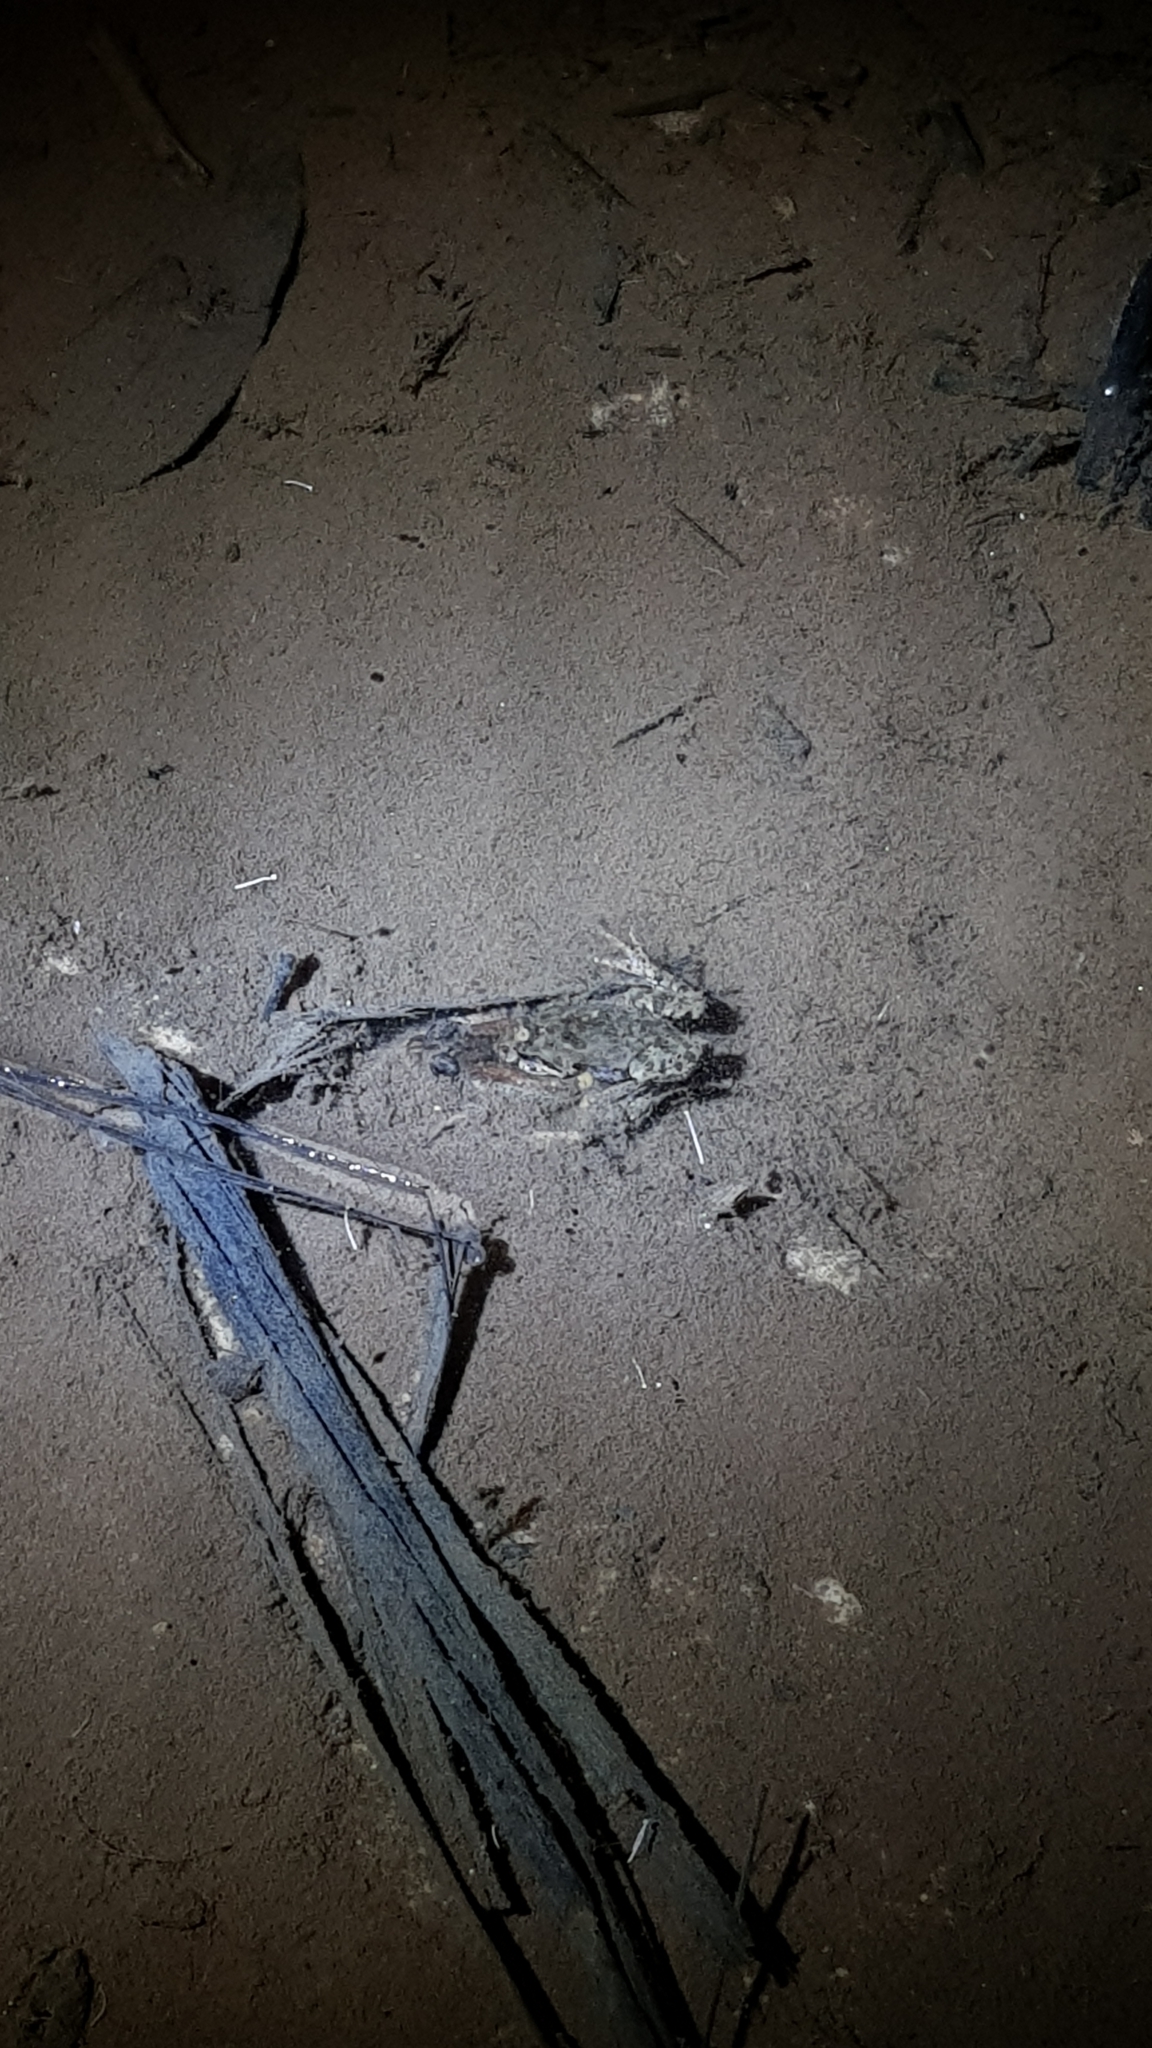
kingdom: Animalia
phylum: Chordata
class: Amphibia
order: Anura
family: Myobatrachidae
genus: Crinia
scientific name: Crinia signifera
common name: Brown froglet
